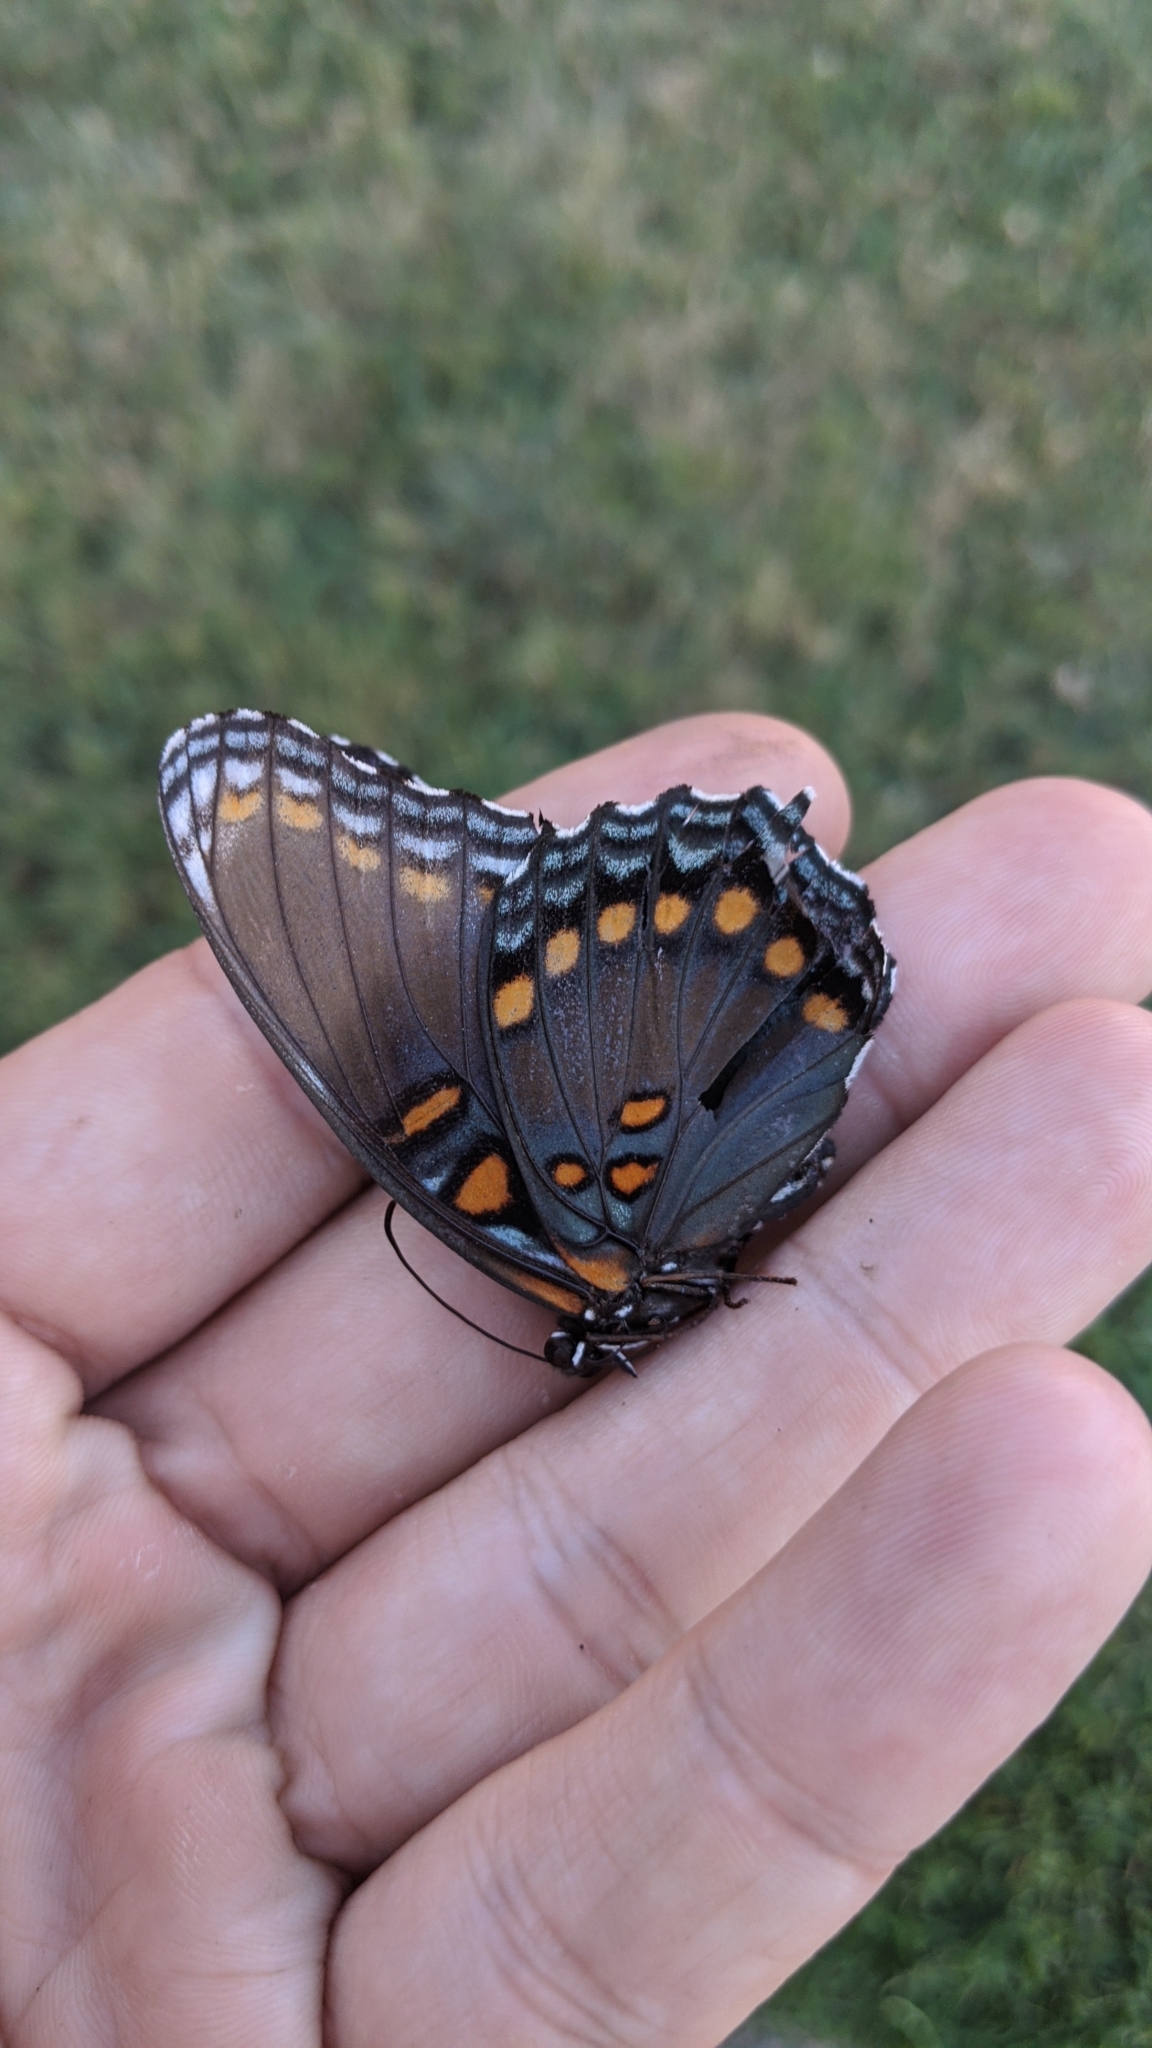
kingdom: Animalia
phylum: Arthropoda
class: Insecta
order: Lepidoptera
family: Nymphalidae
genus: Limenitis
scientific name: Limenitis astyanax
